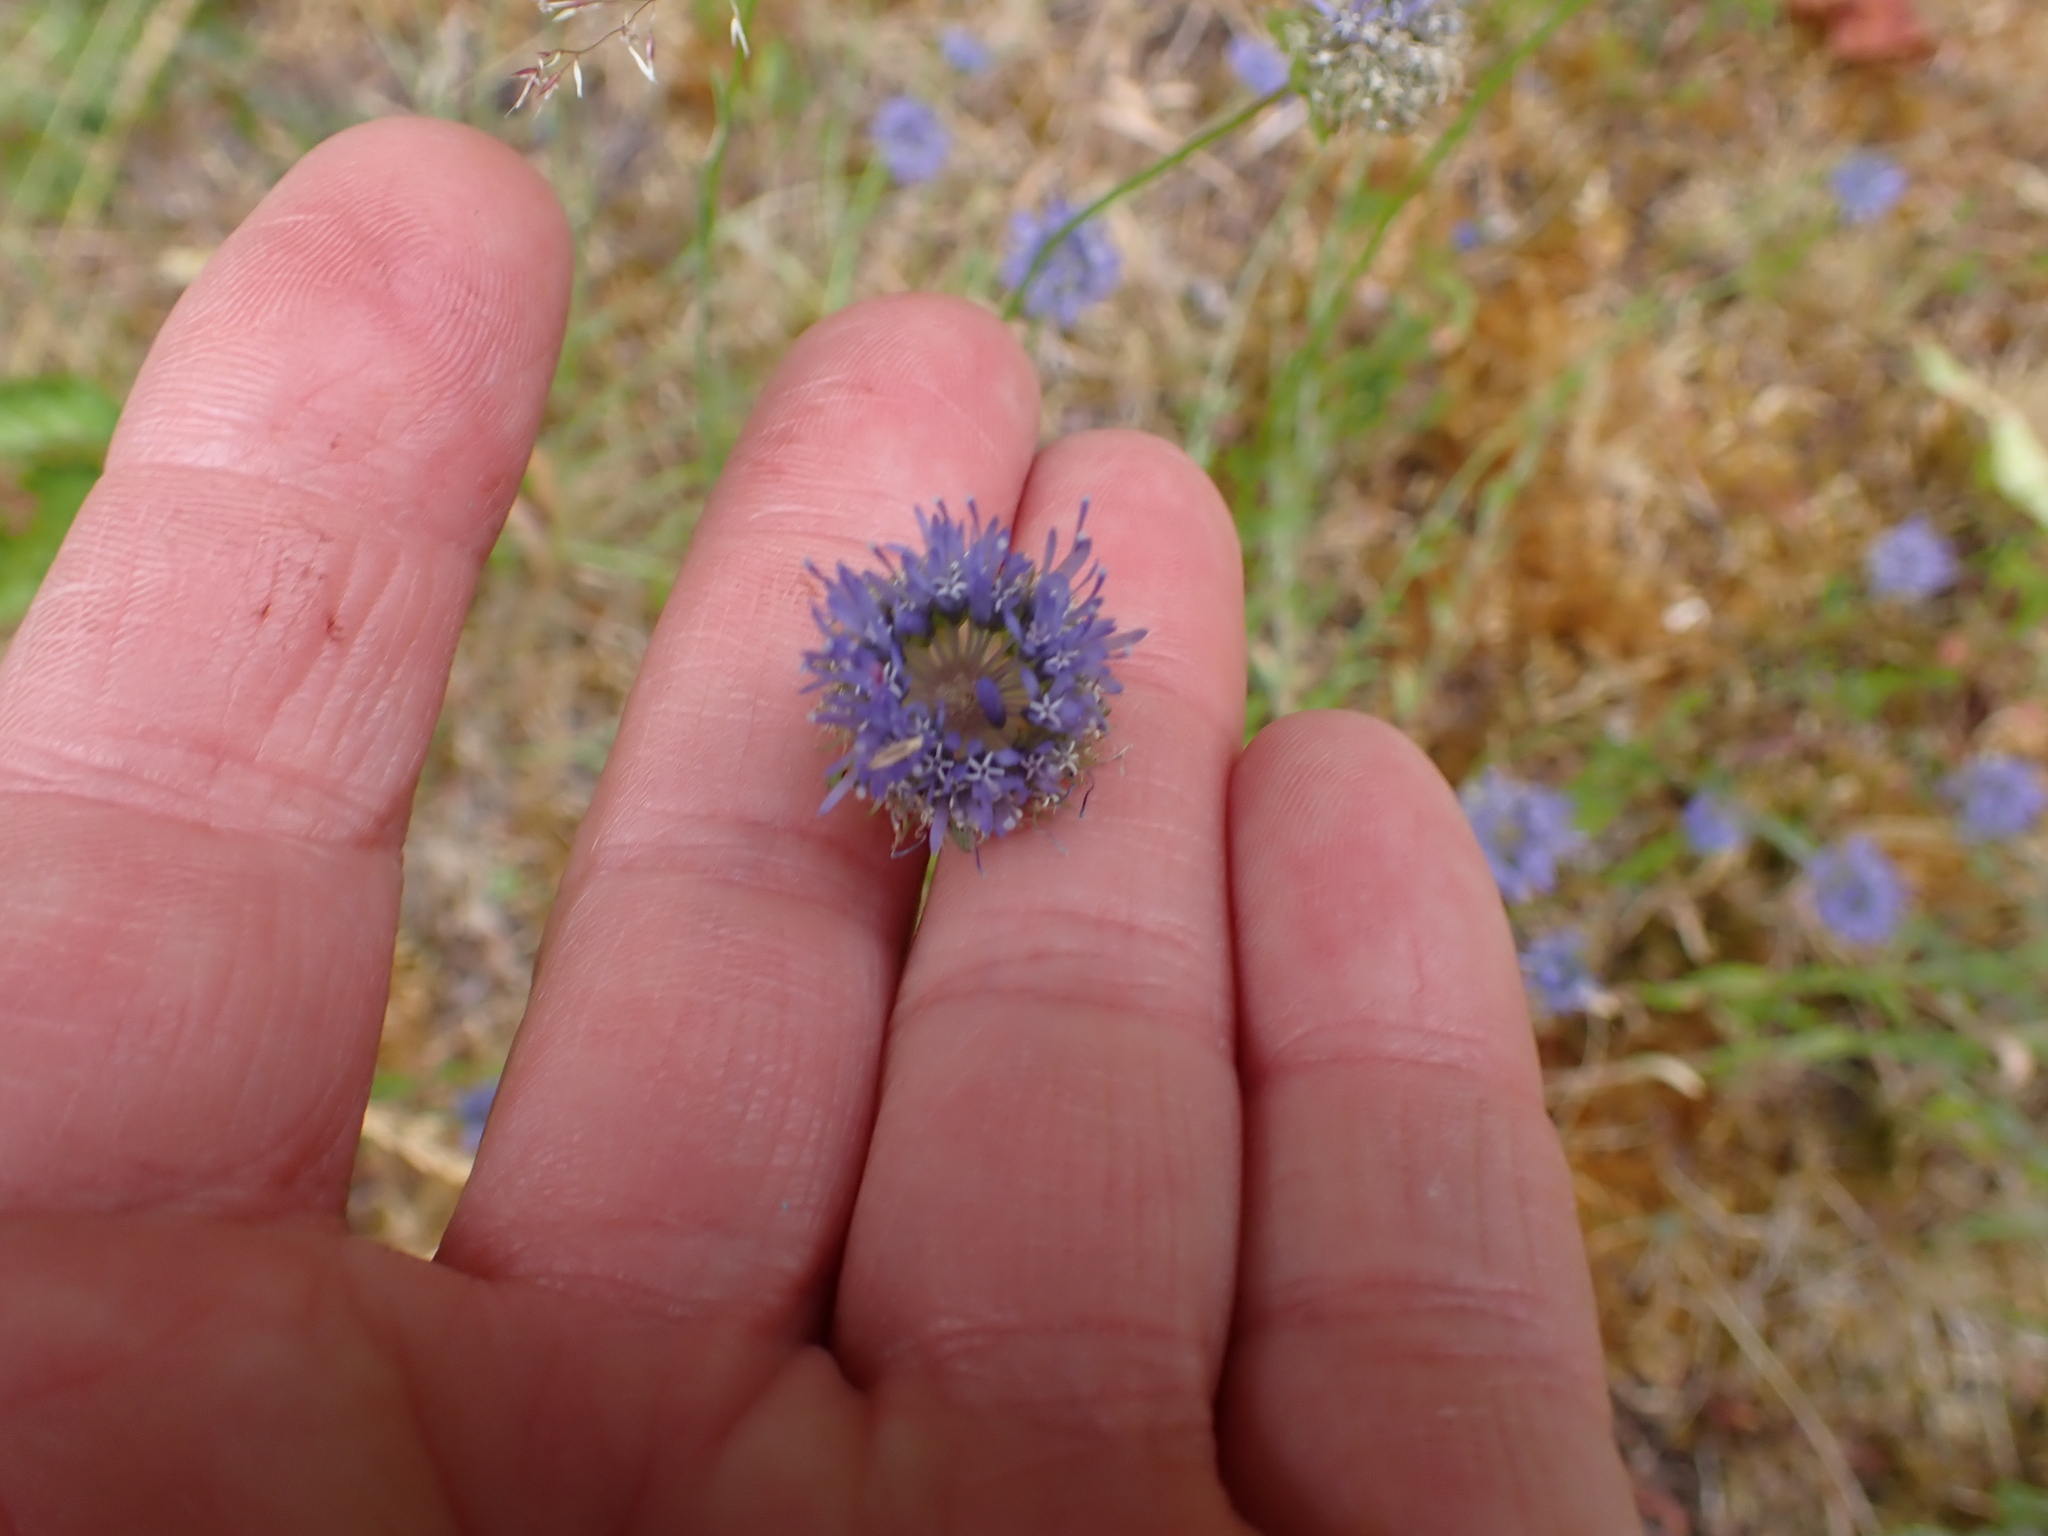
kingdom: Plantae
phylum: Tracheophyta
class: Magnoliopsida
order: Asterales
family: Campanulaceae
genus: Jasione
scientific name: Jasione montana
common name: Sheep's-bit
